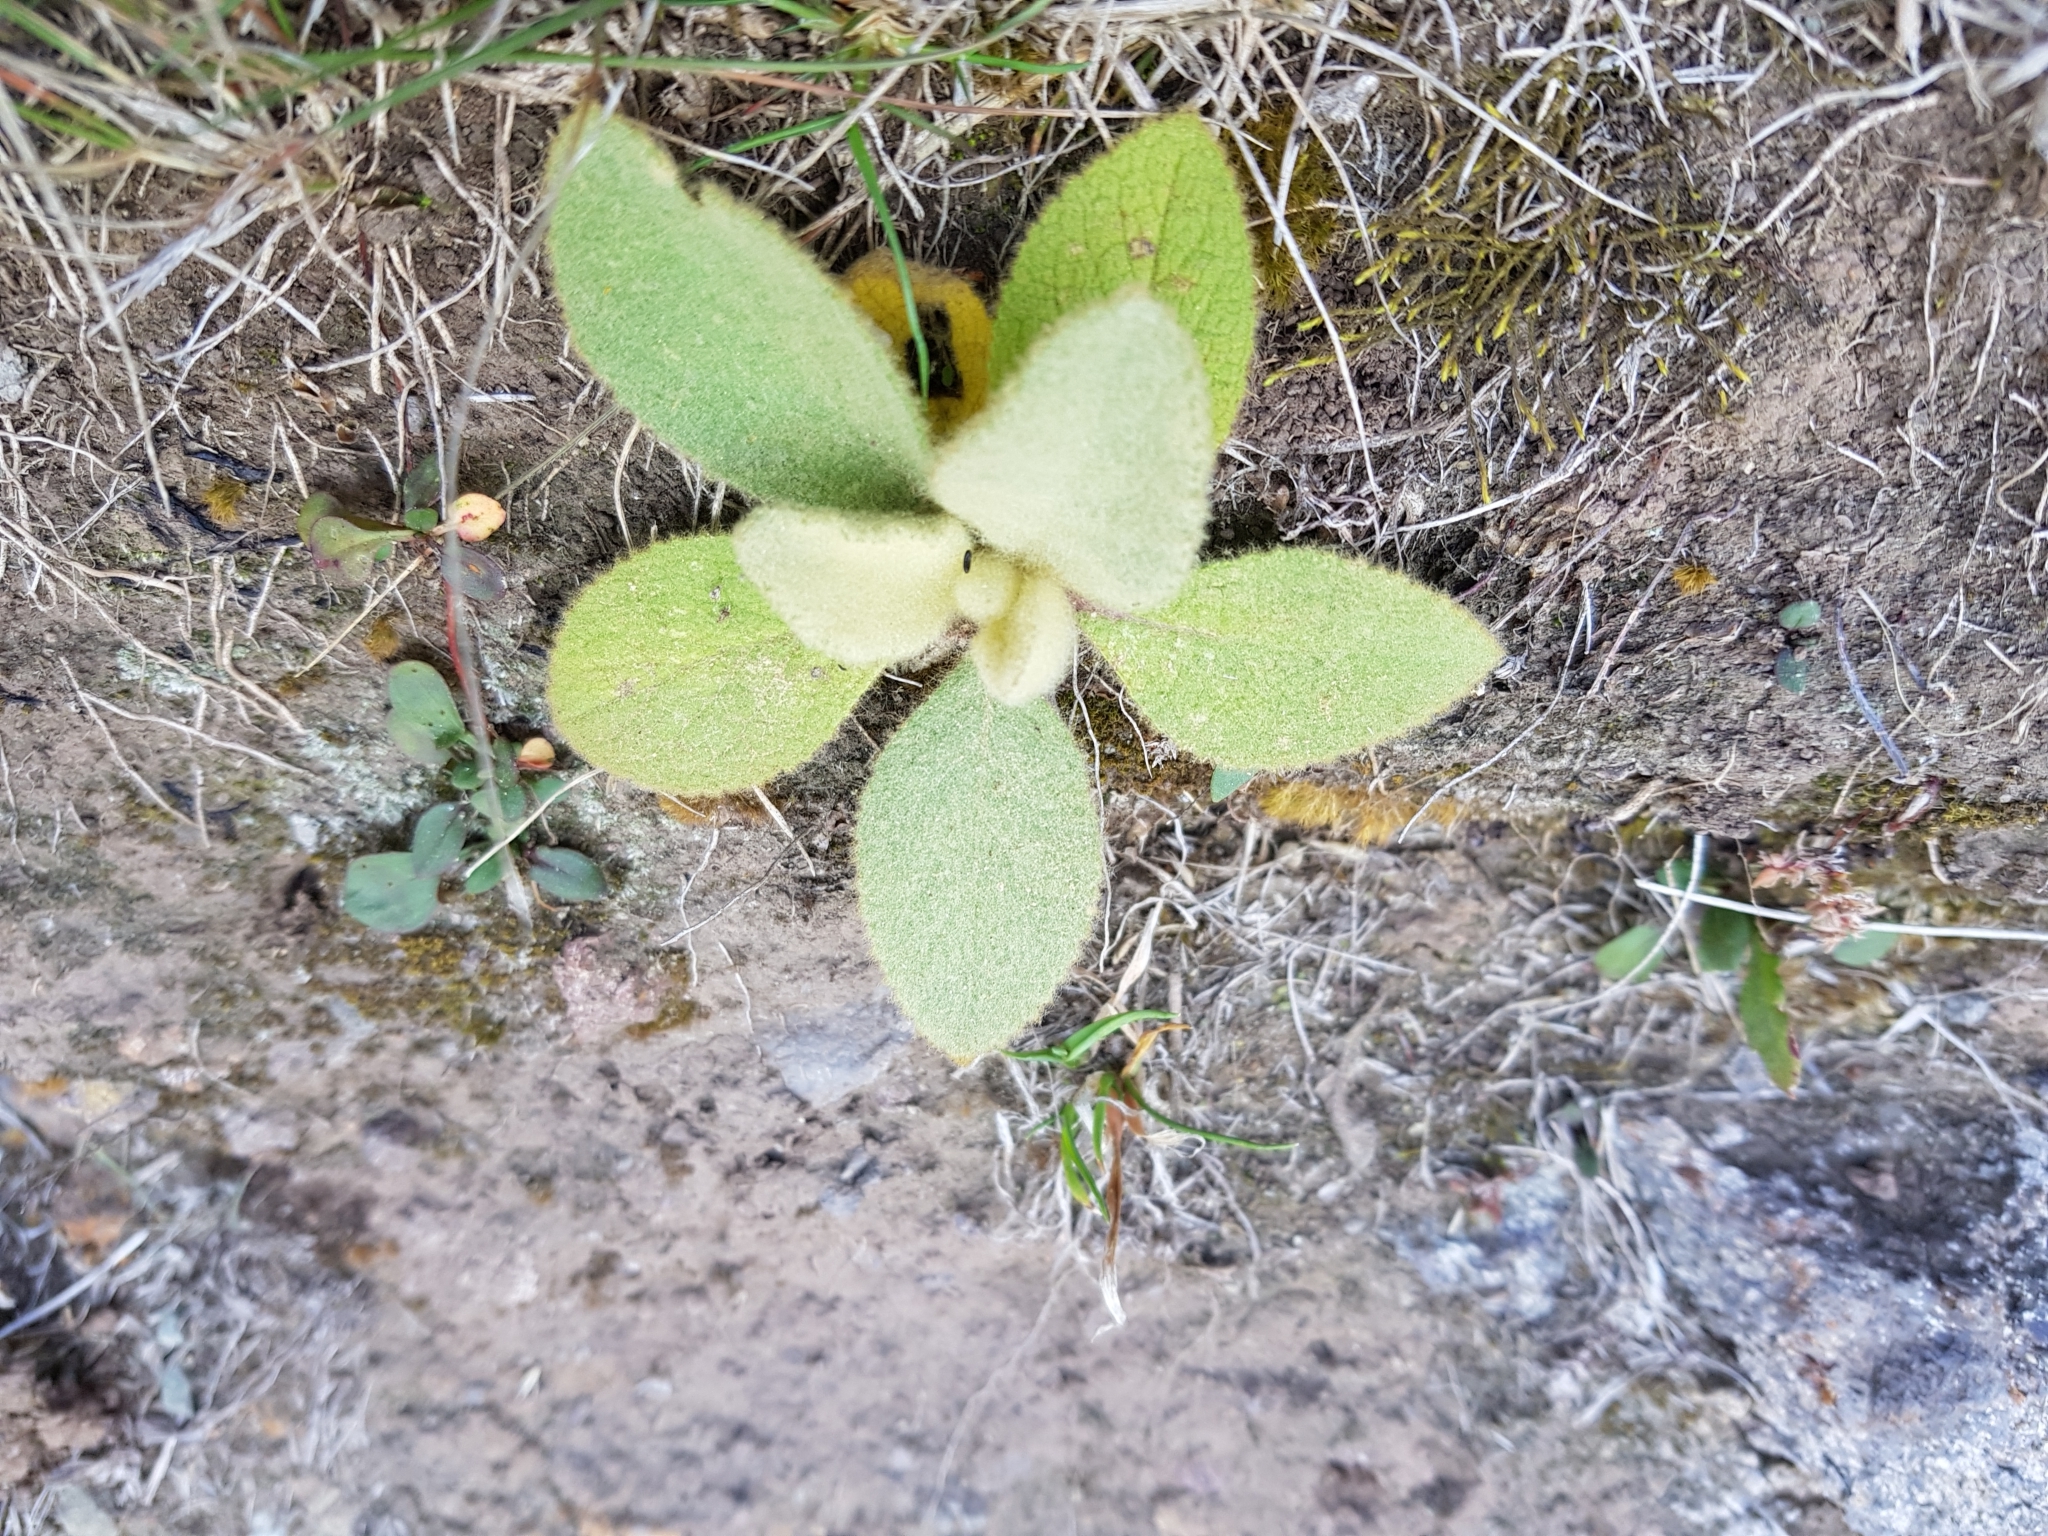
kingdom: Plantae
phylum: Tracheophyta
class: Magnoliopsida
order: Lamiales
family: Scrophulariaceae
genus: Verbascum
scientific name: Verbascum thapsus
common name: Common mullein
